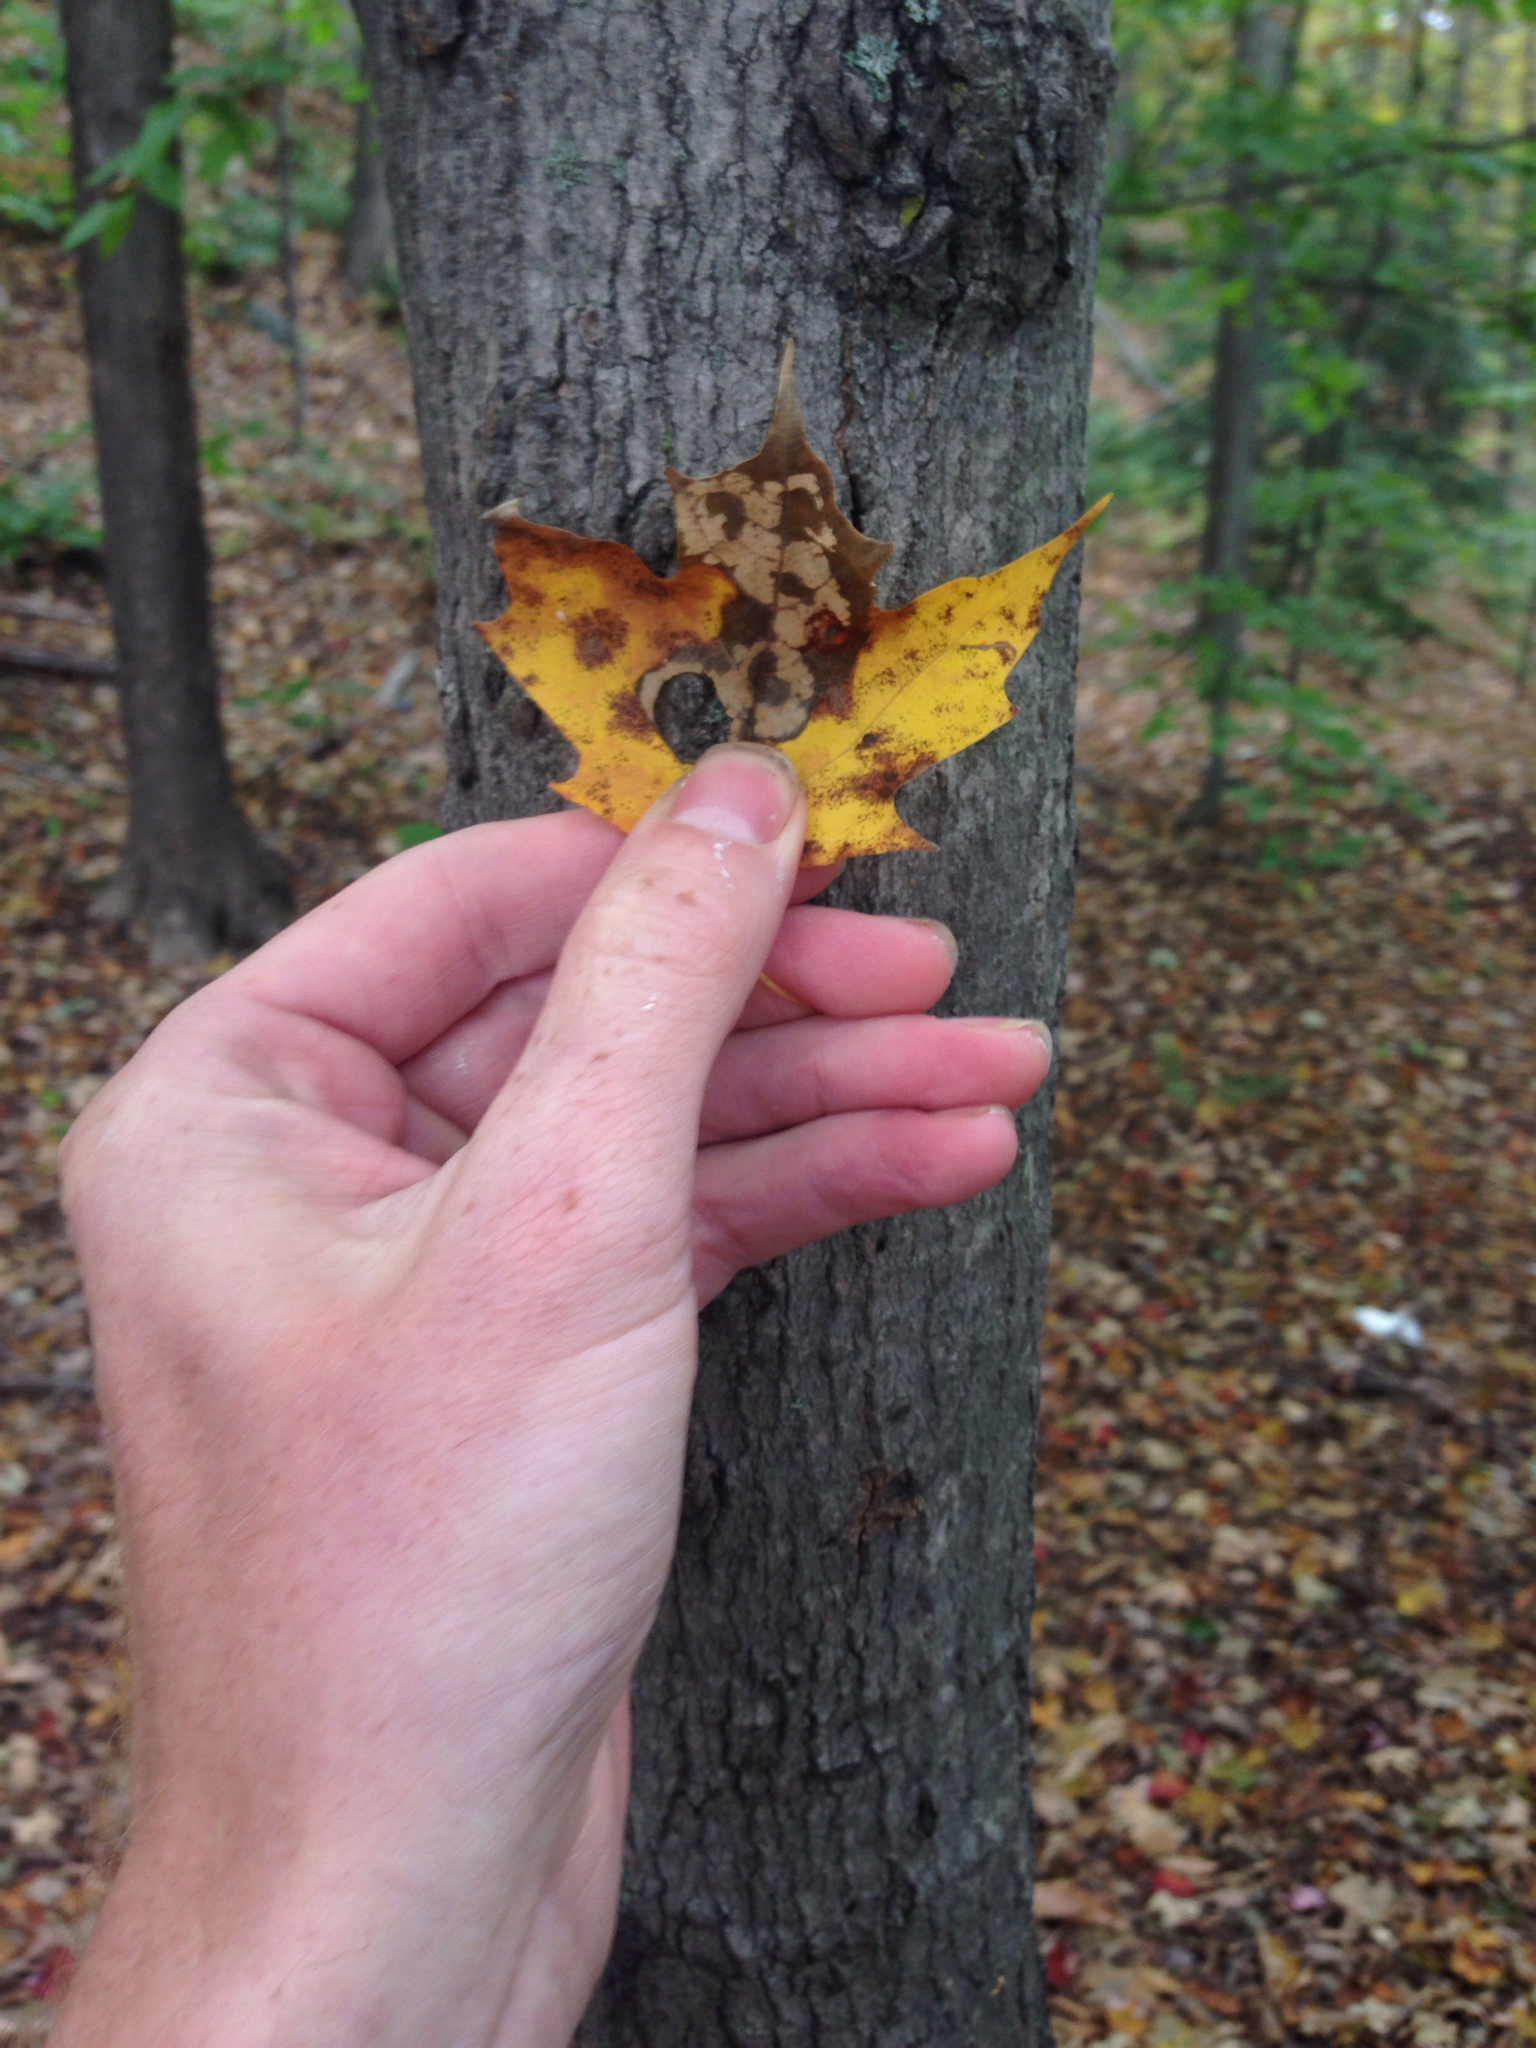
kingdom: Plantae
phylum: Tracheophyta
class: Magnoliopsida
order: Sapindales
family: Sapindaceae
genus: Acer
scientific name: Acer saccharum
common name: Sugar maple
